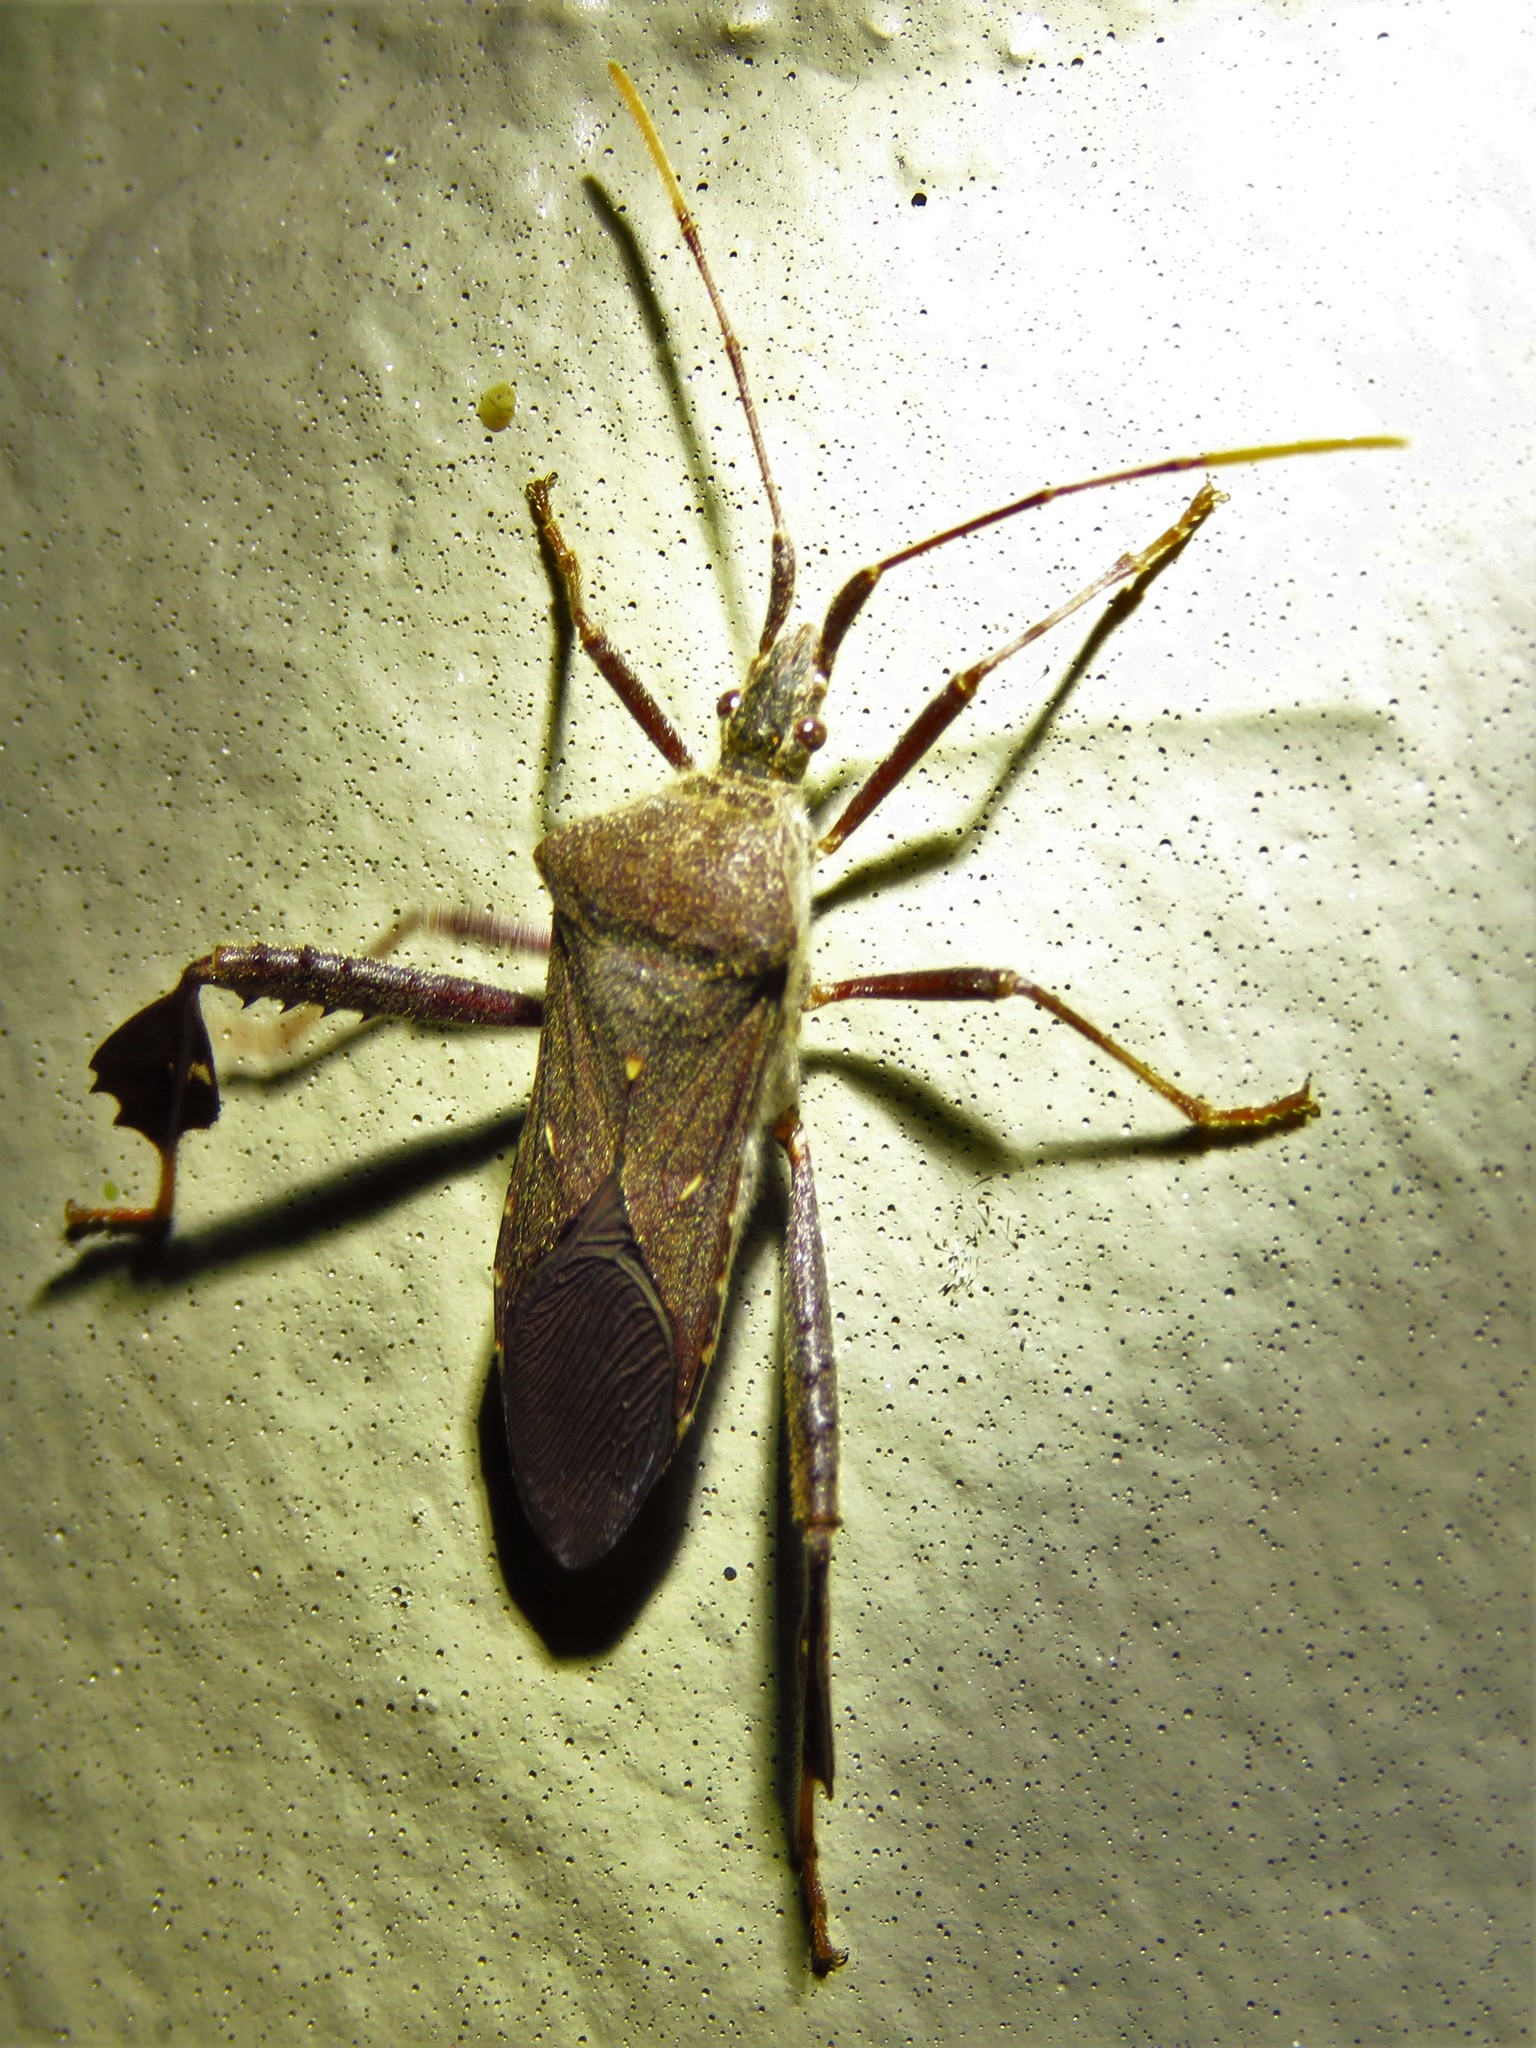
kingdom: Animalia
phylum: Arthropoda
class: Insecta
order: Hemiptera
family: Coreidae
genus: Leptoglossus
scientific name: Leptoglossus oppositus
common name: Northern leaf-footed bug
